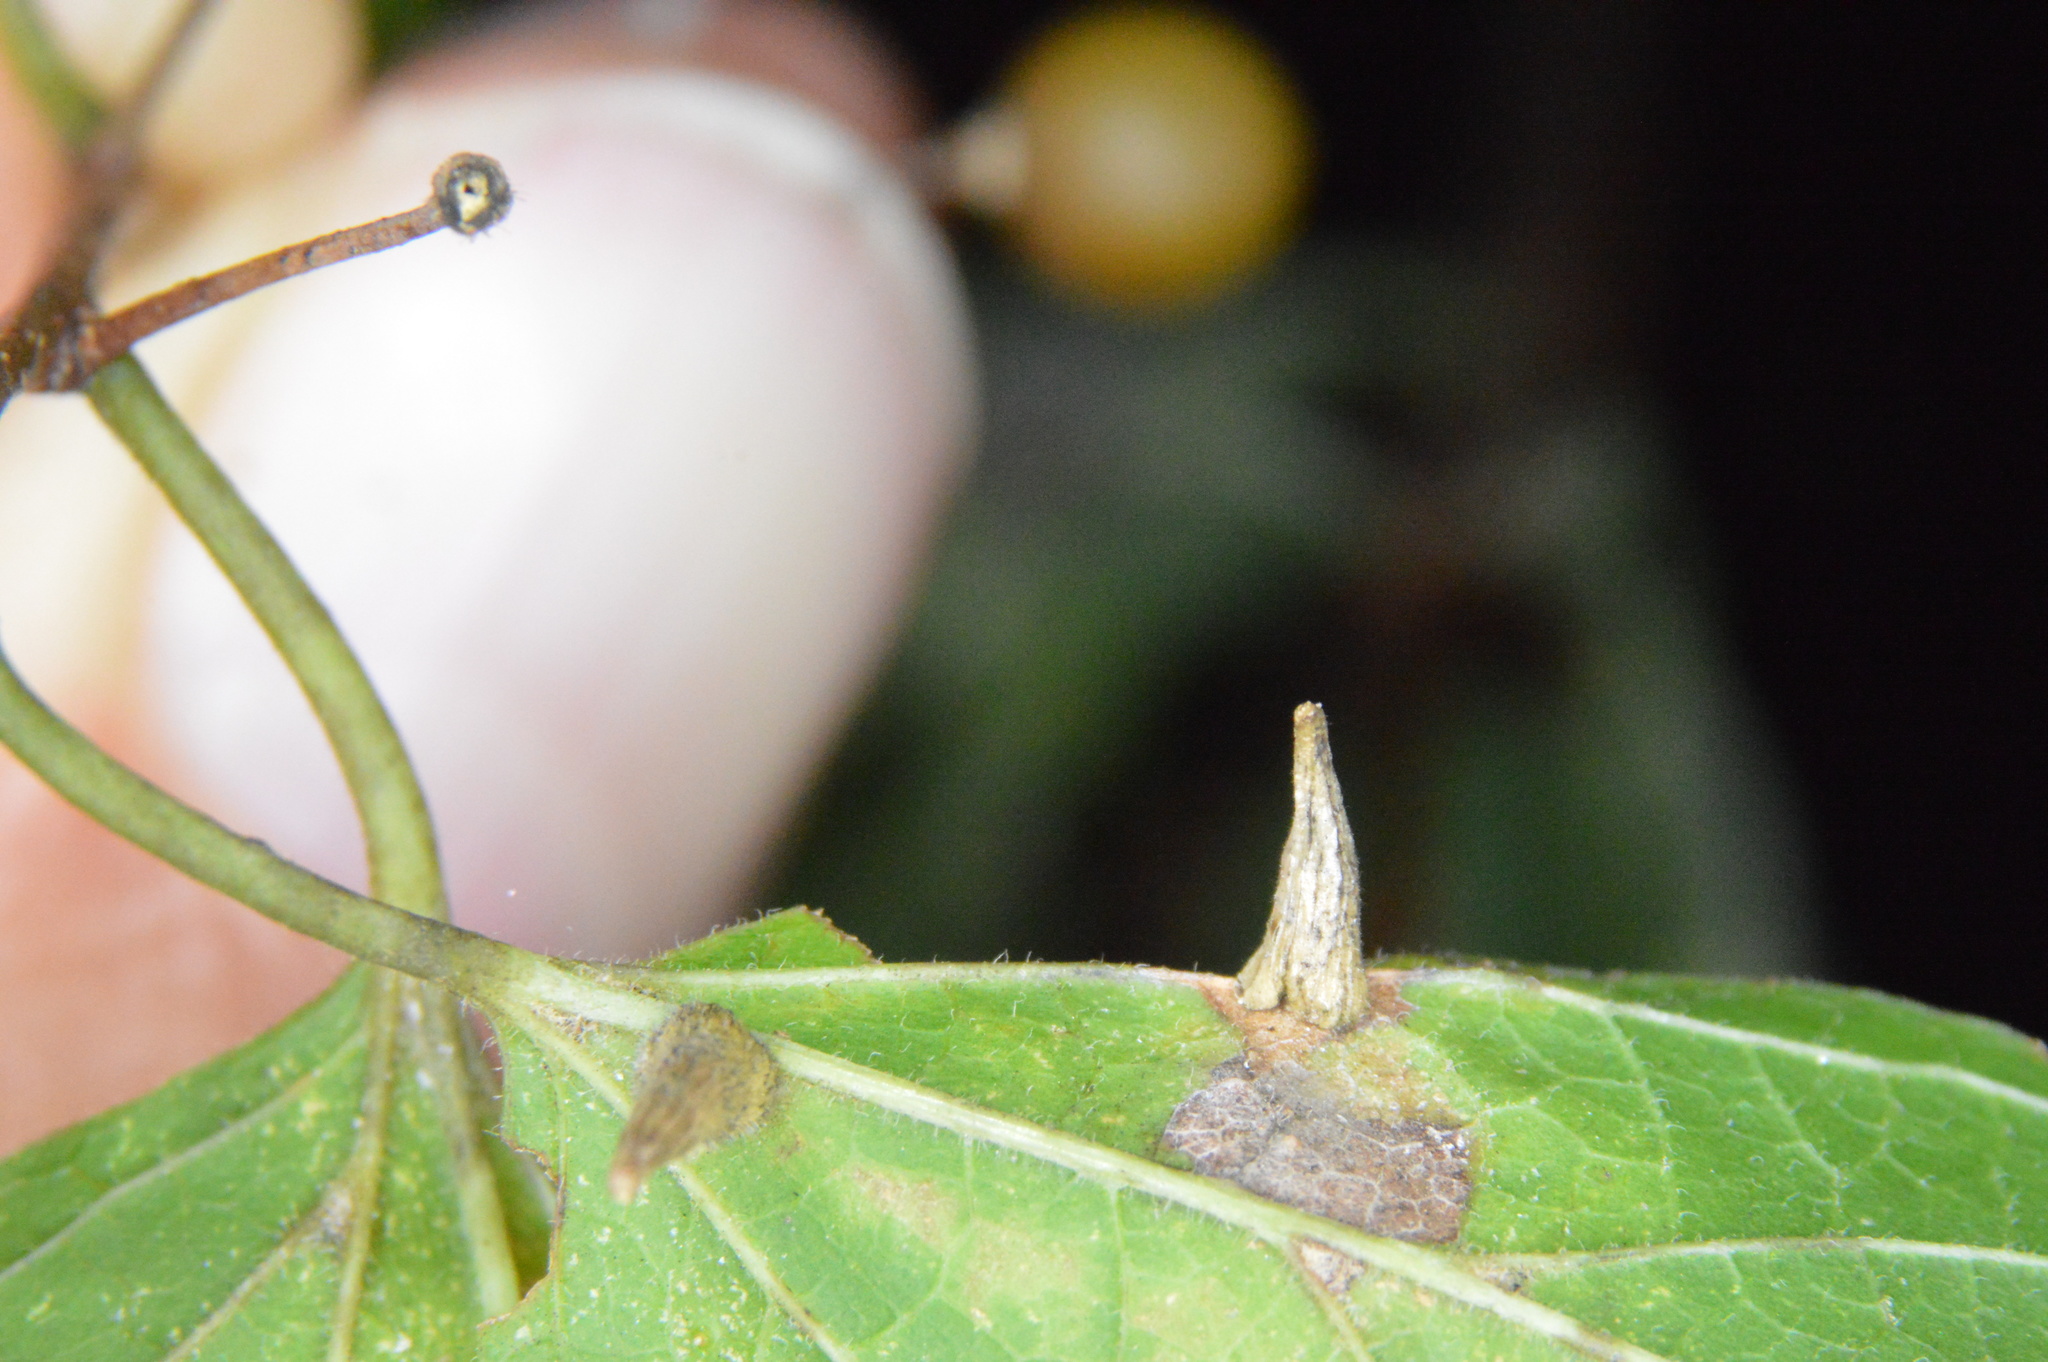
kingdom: Animalia
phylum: Arthropoda
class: Insecta
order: Diptera
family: Cecidomyiidae
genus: Celticecis
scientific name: Celticecis subulata
